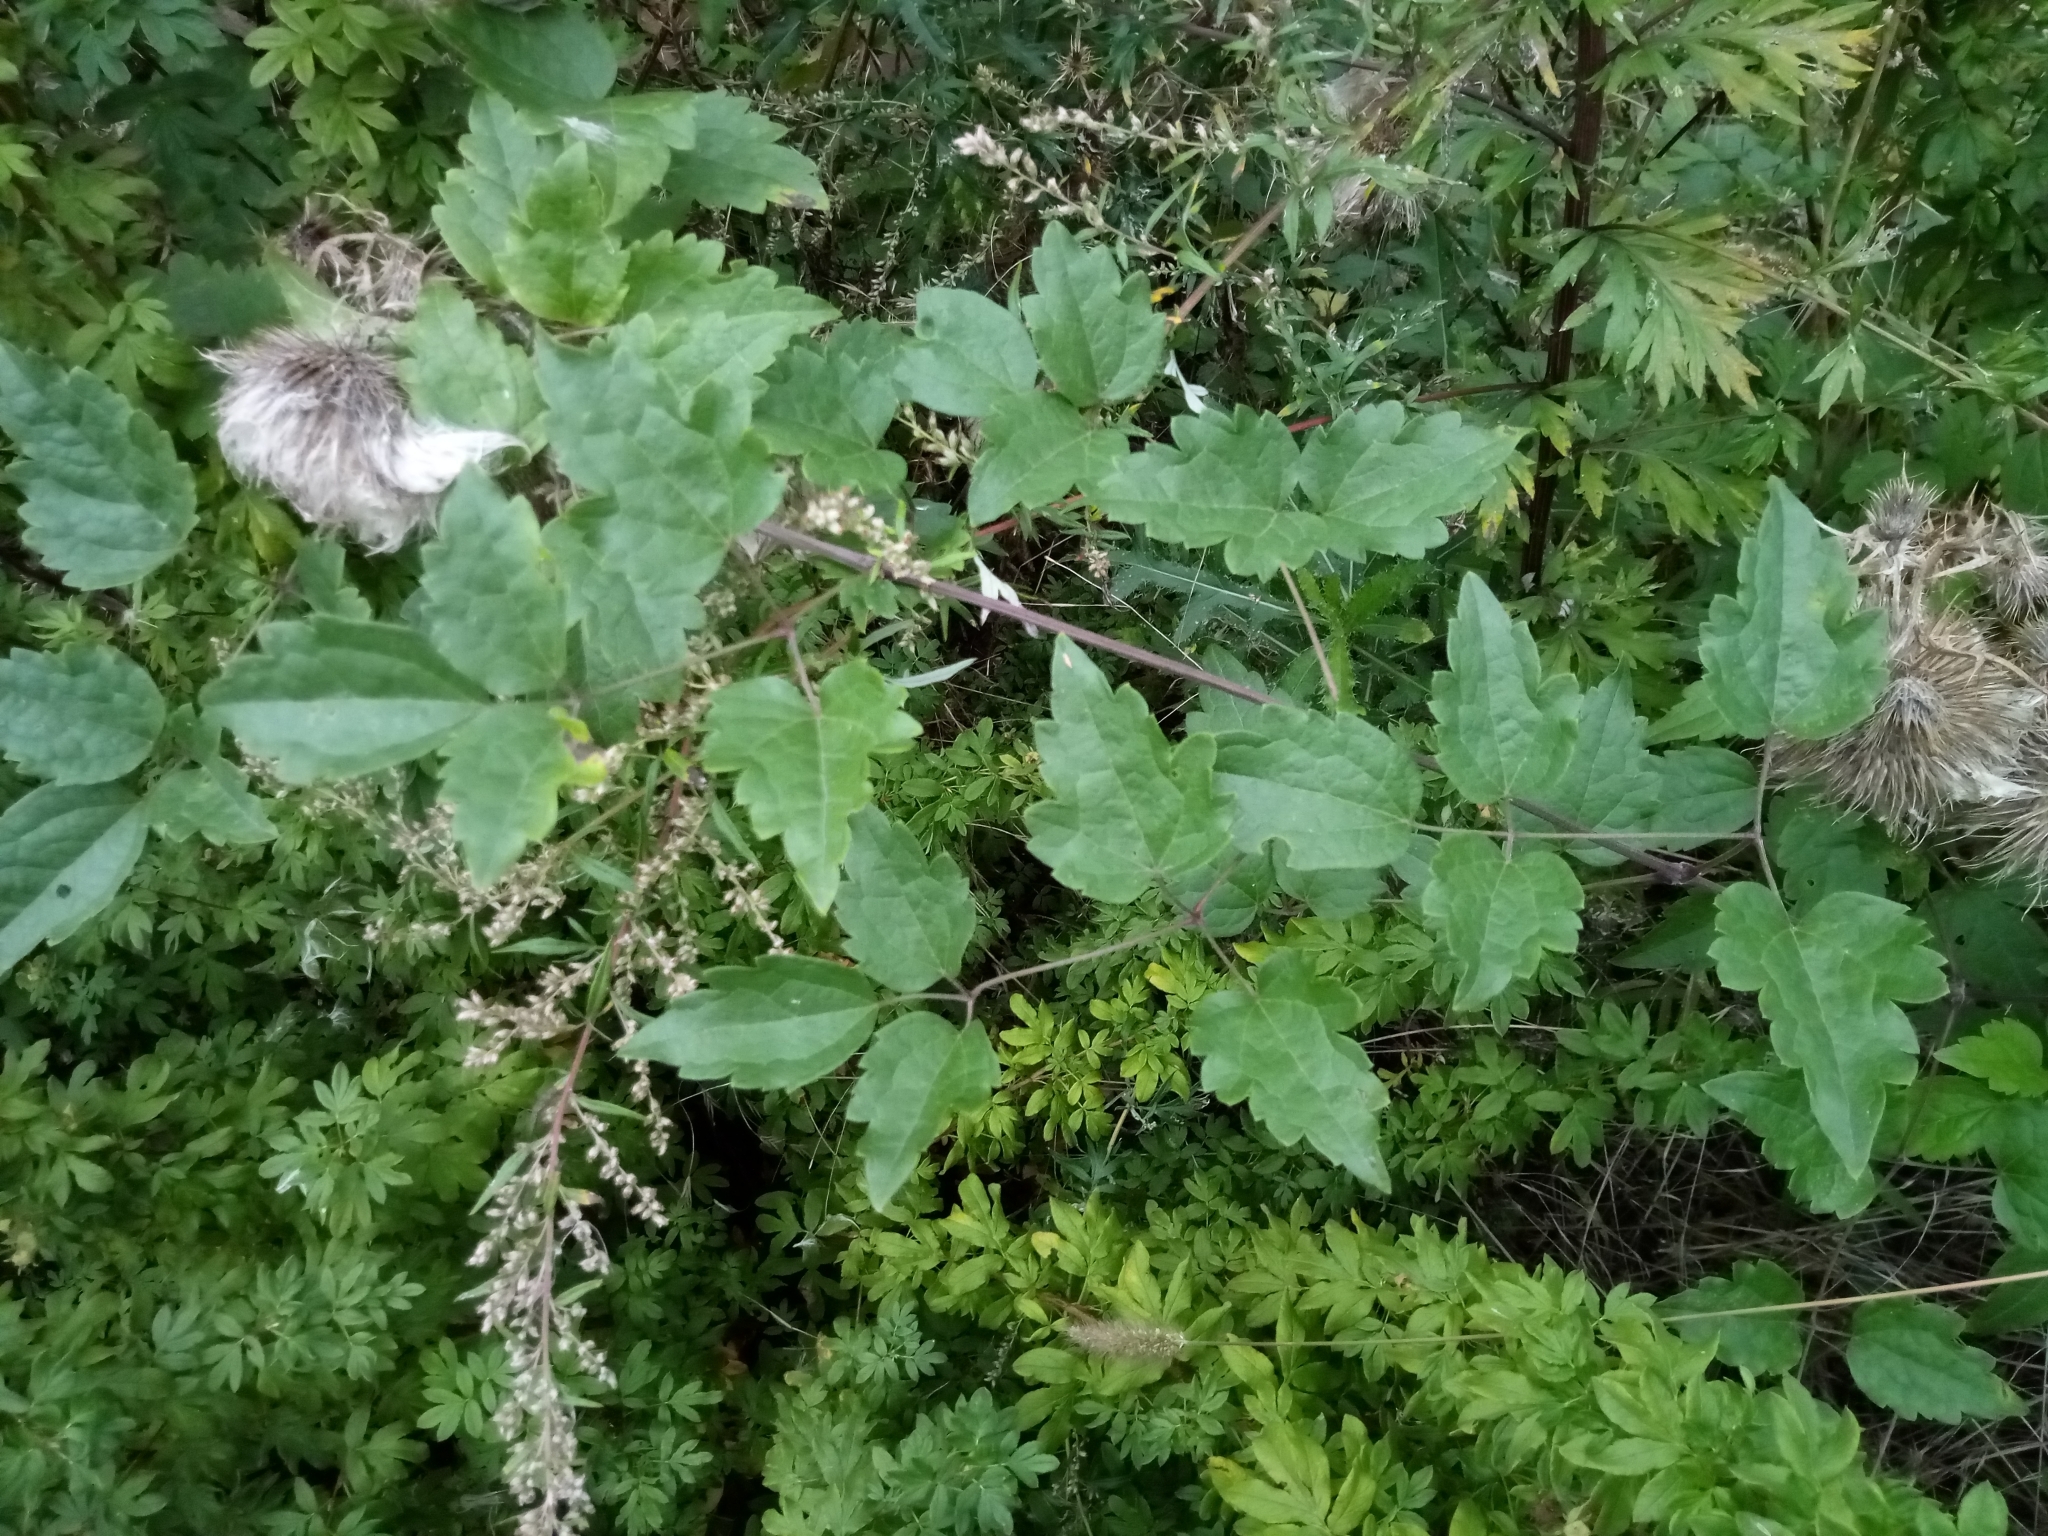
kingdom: Plantae
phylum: Tracheophyta
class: Magnoliopsida
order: Ranunculales
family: Ranunculaceae
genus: Clematis
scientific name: Clematis vitalba
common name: Evergreen clematis
